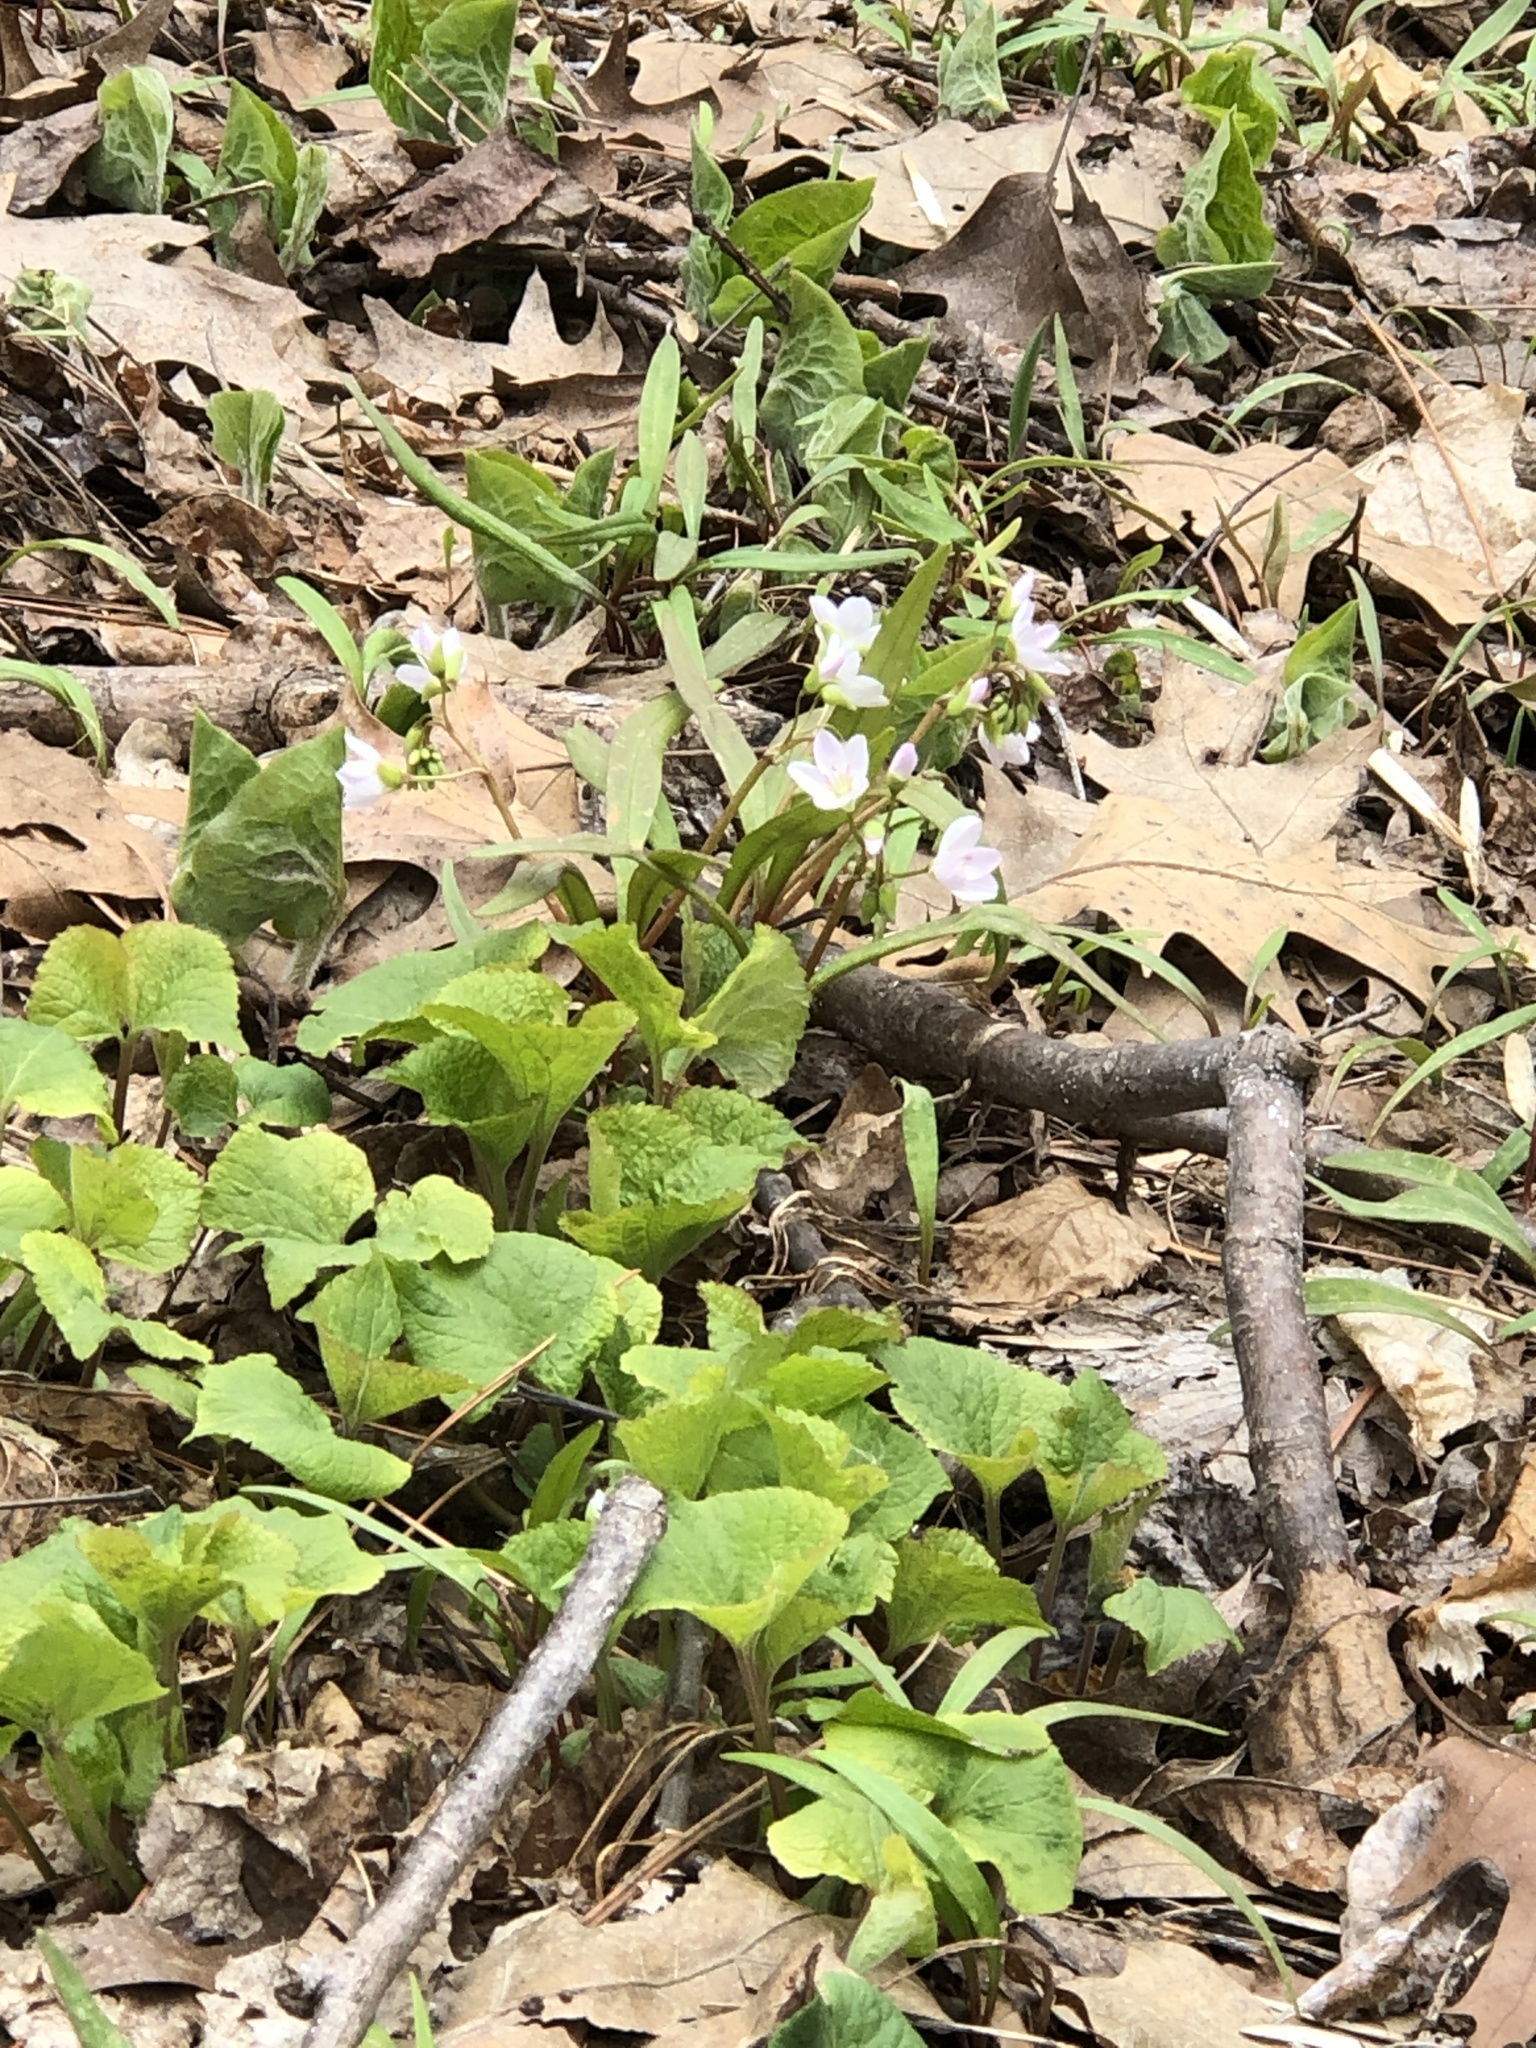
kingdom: Plantae
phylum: Tracheophyta
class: Magnoliopsida
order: Caryophyllales
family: Montiaceae
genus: Claytonia
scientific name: Claytonia virginica
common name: Virginia springbeauty
